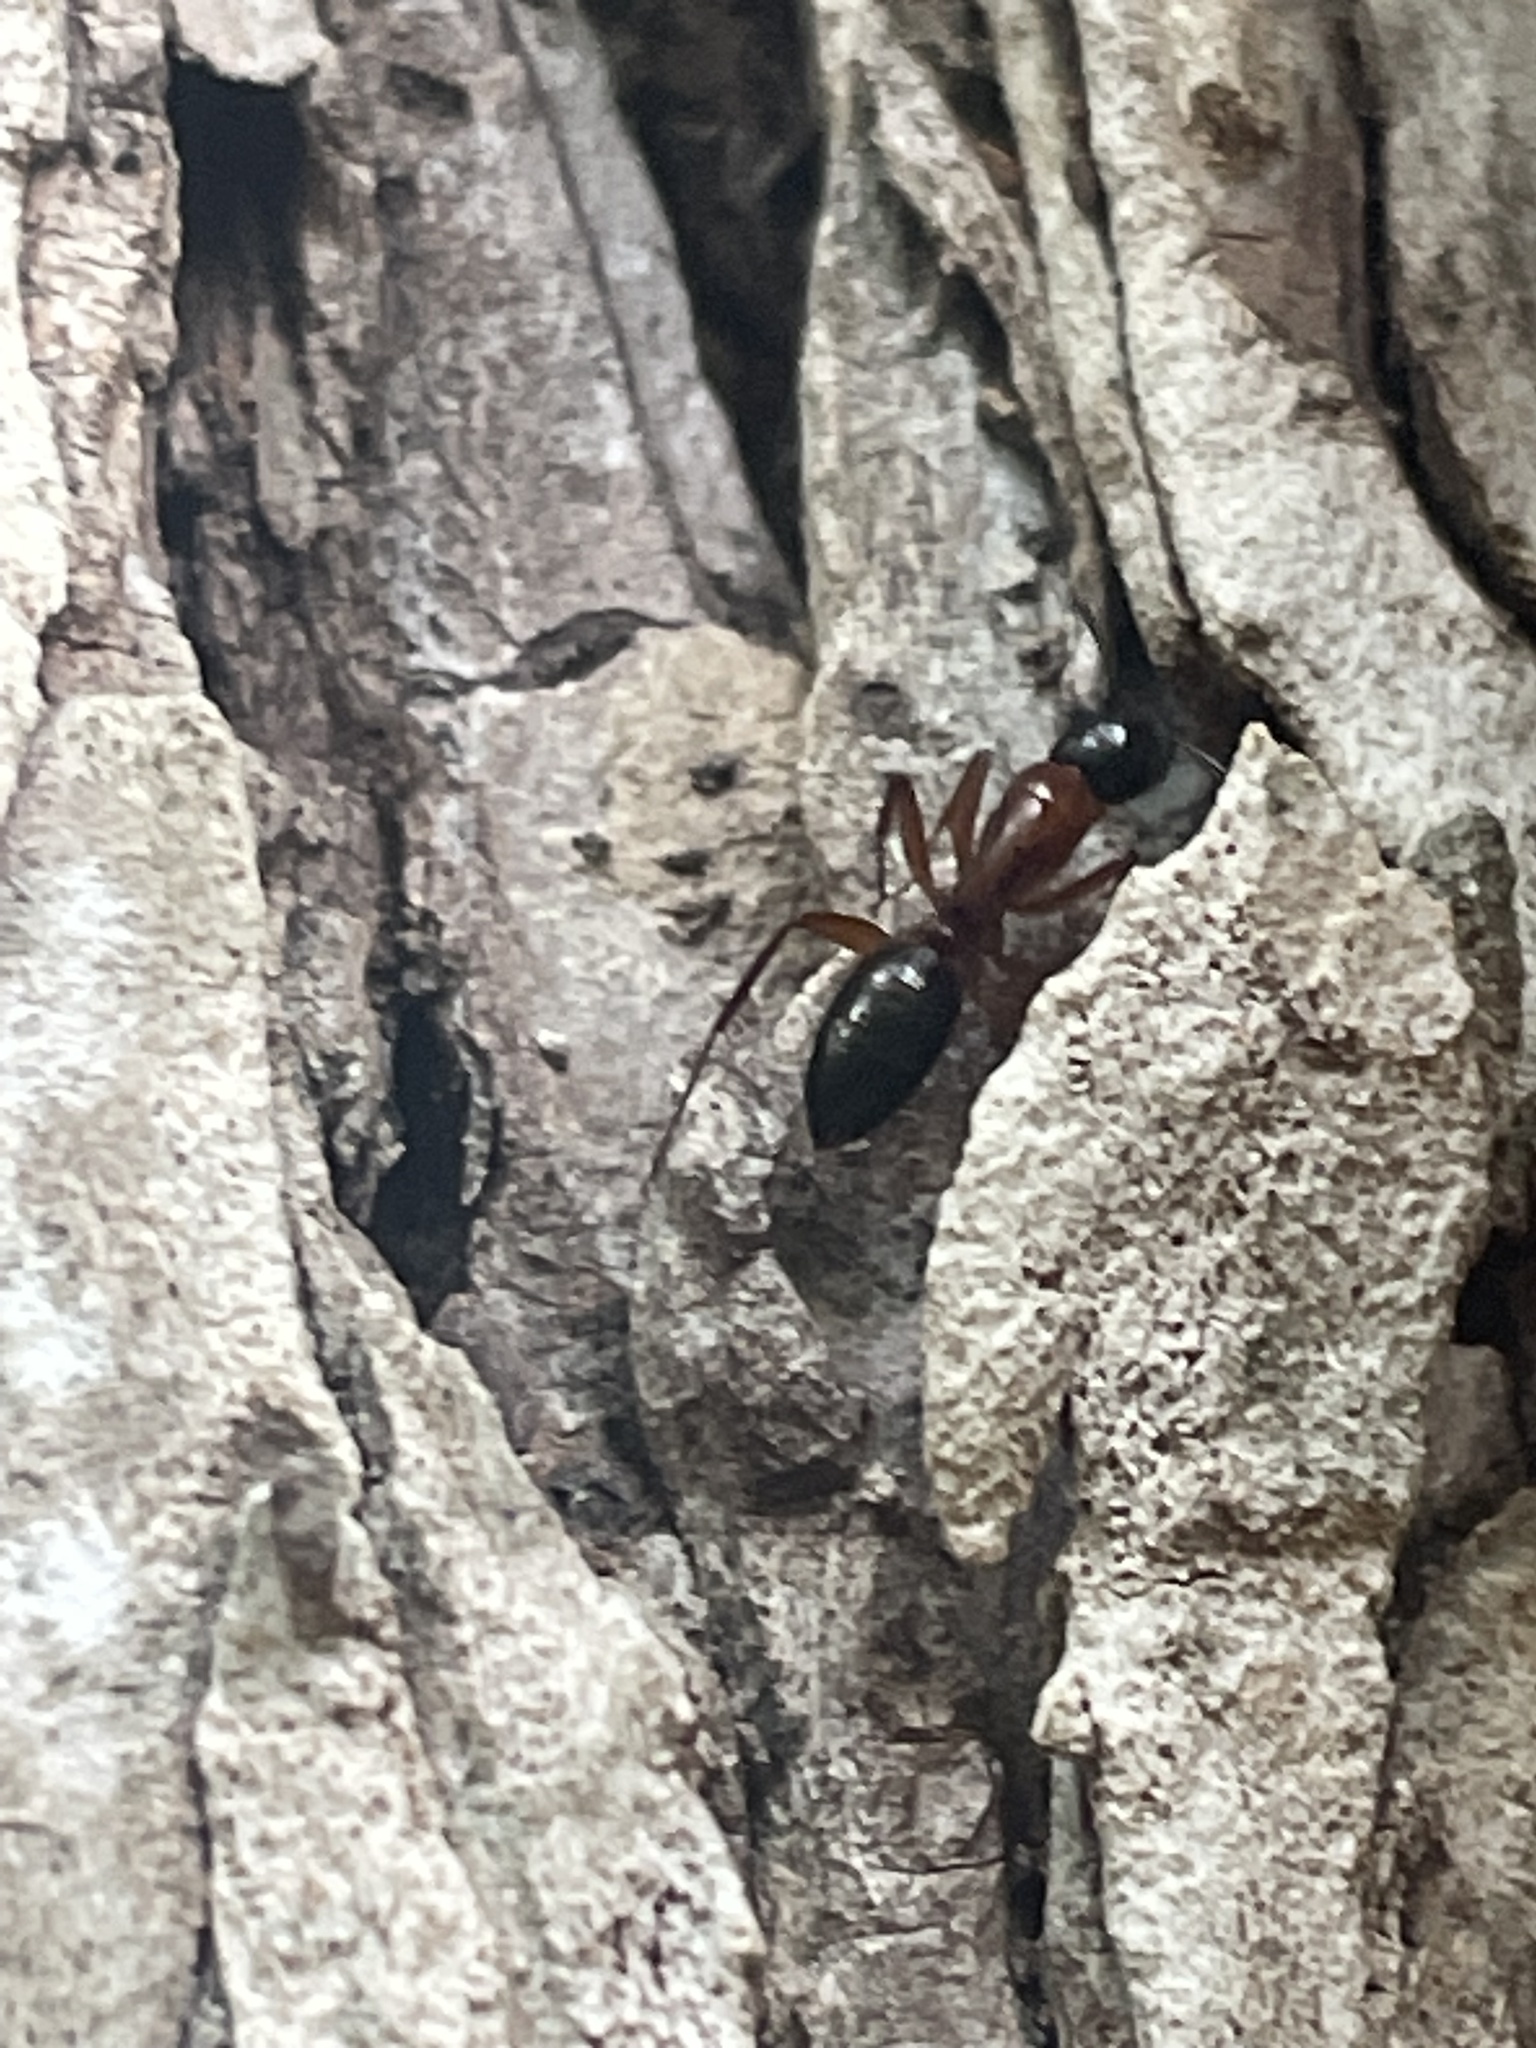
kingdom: Animalia
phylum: Arthropoda
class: Insecta
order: Hymenoptera
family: Formicidae
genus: Camponotus
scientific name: Camponotus texanus
